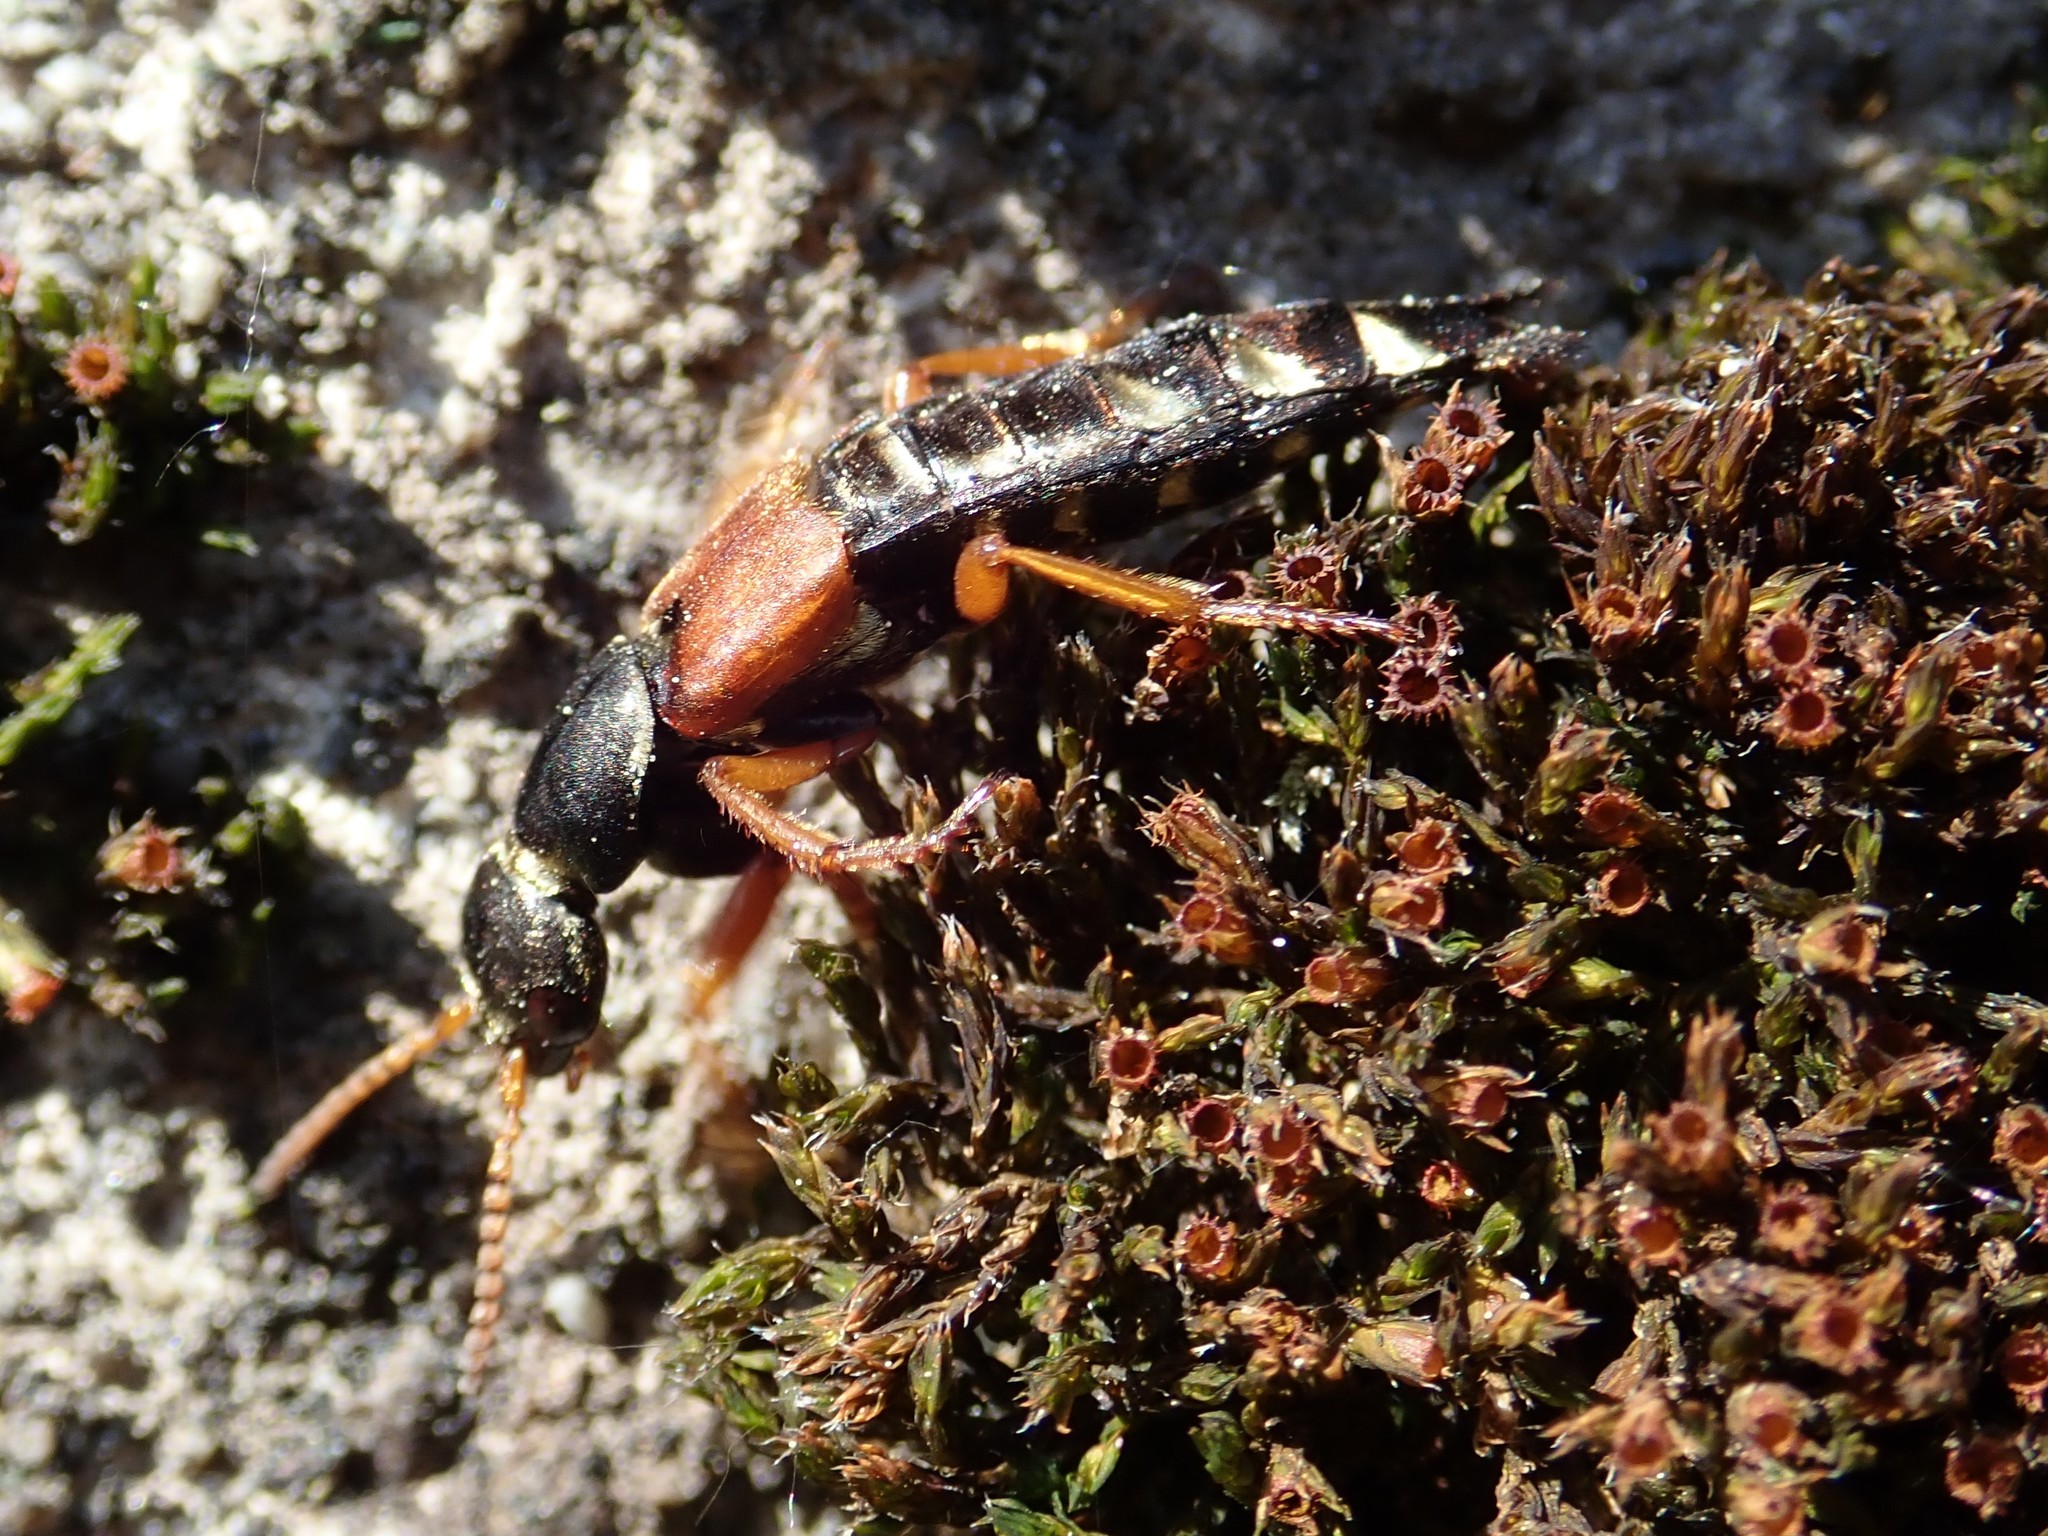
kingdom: Animalia
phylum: Arthropoda
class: Insecta
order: Coleoptera
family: Staphylinidae
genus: Staphylinus
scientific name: Staphylinus caesareus
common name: Staph beetle
